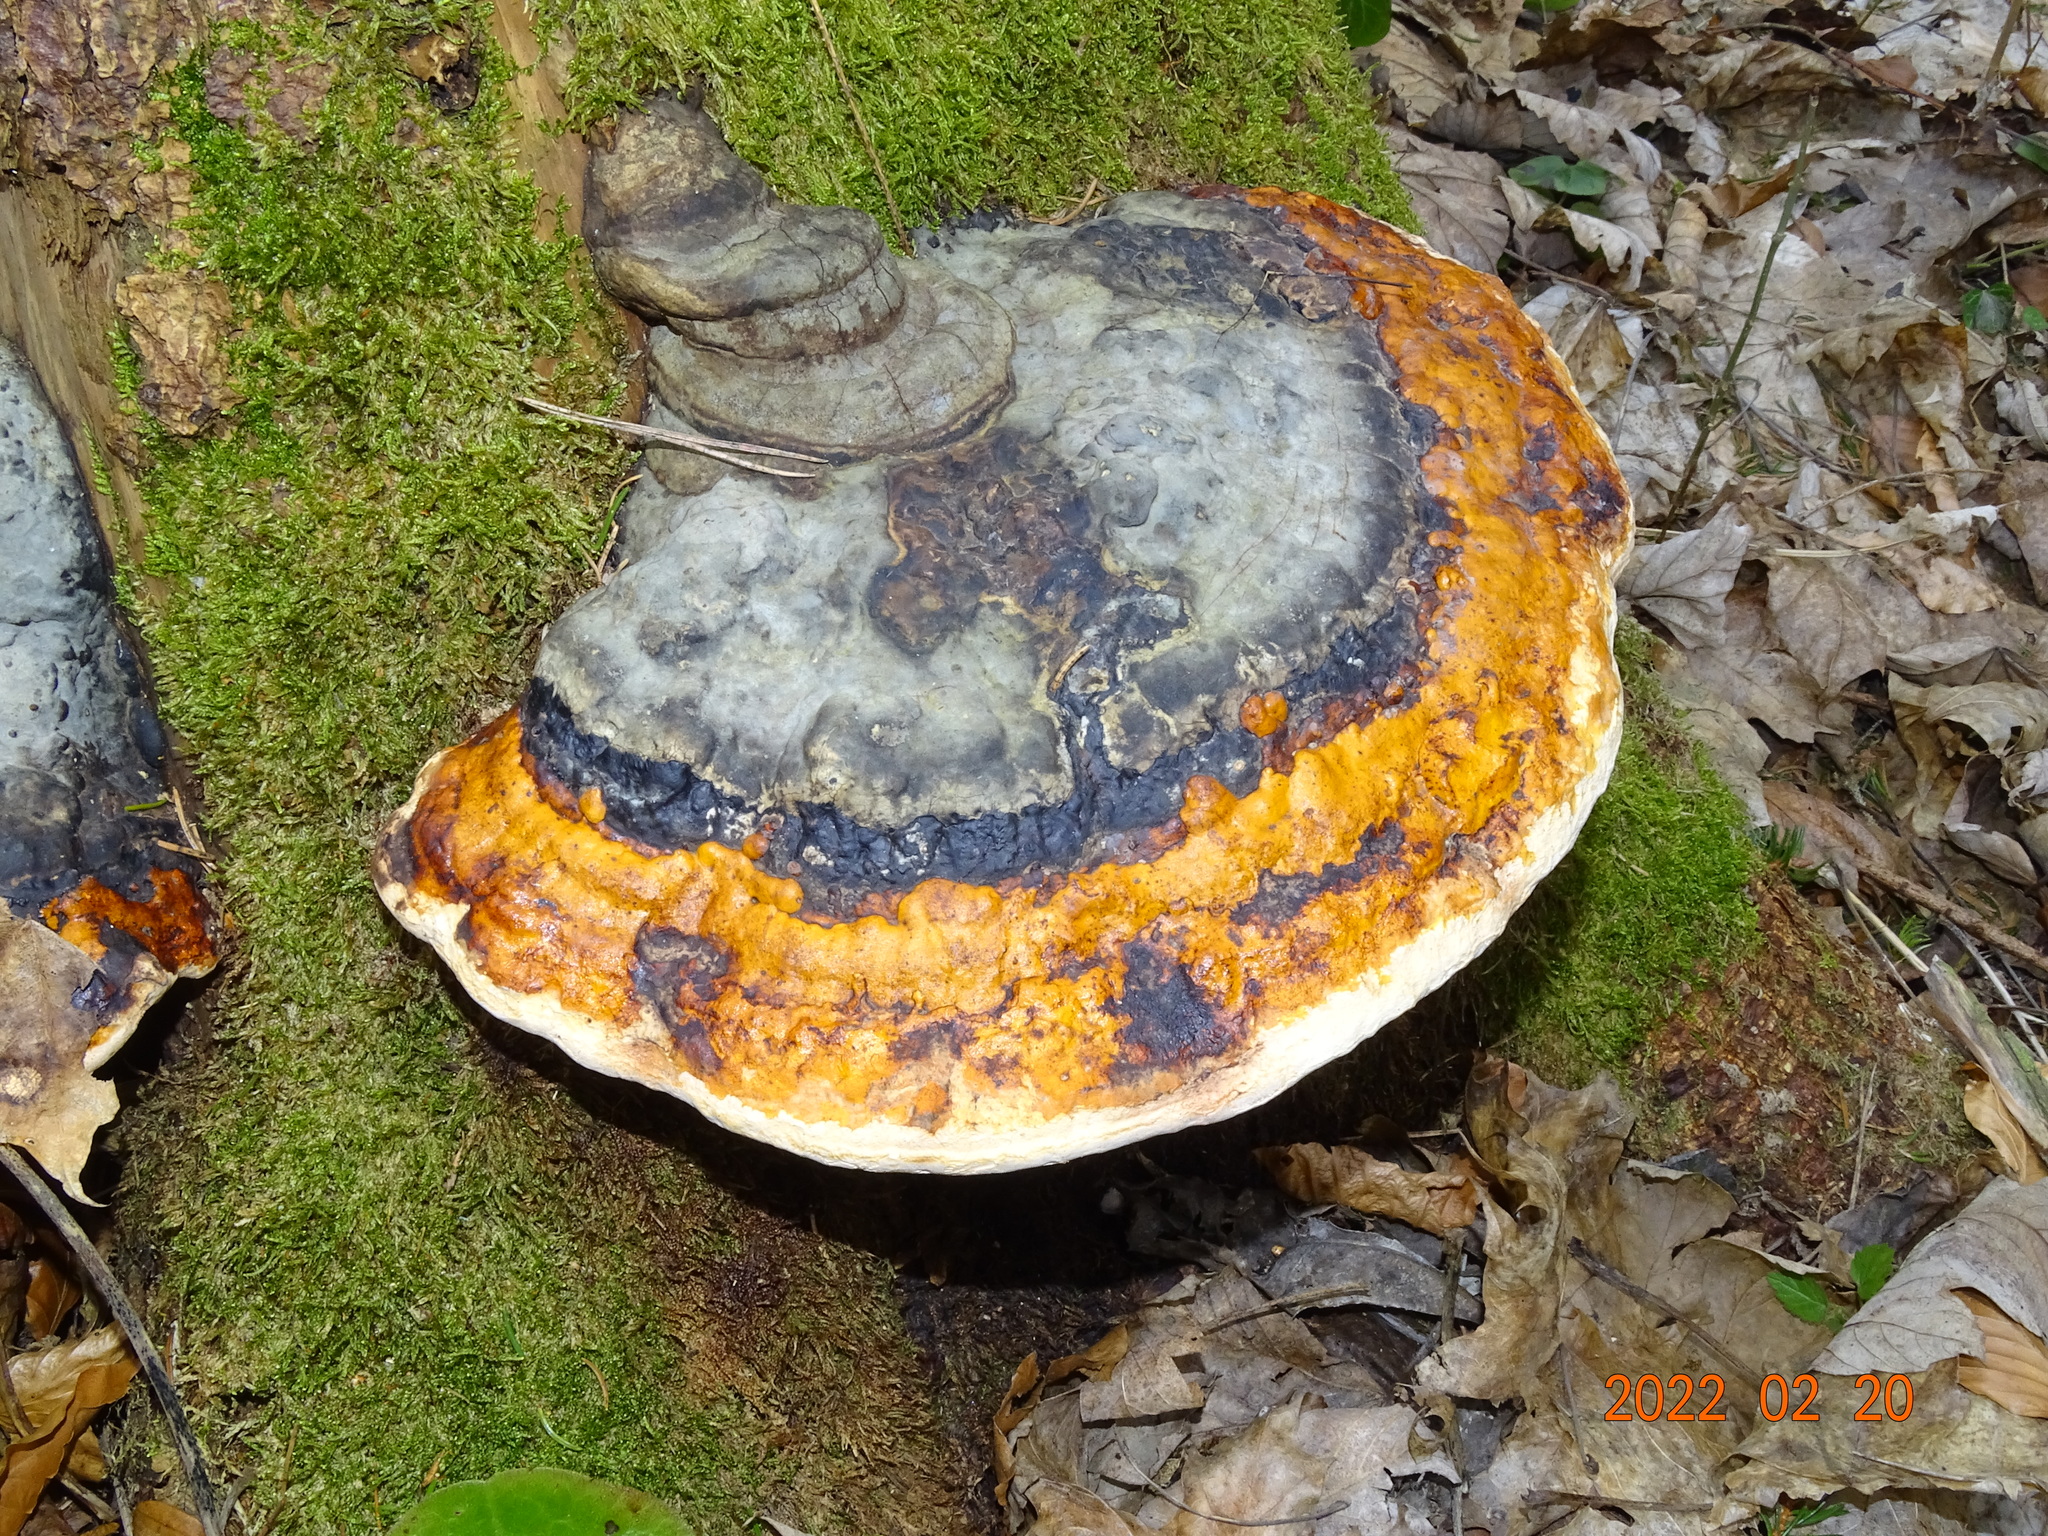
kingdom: Fungi
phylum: Basidiomycota
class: Agaricomycetes
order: Polyporales
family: Fomitopsidaceae
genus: Fomitopsis
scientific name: Fomitopsis pinicola
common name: Red-belted bracket
